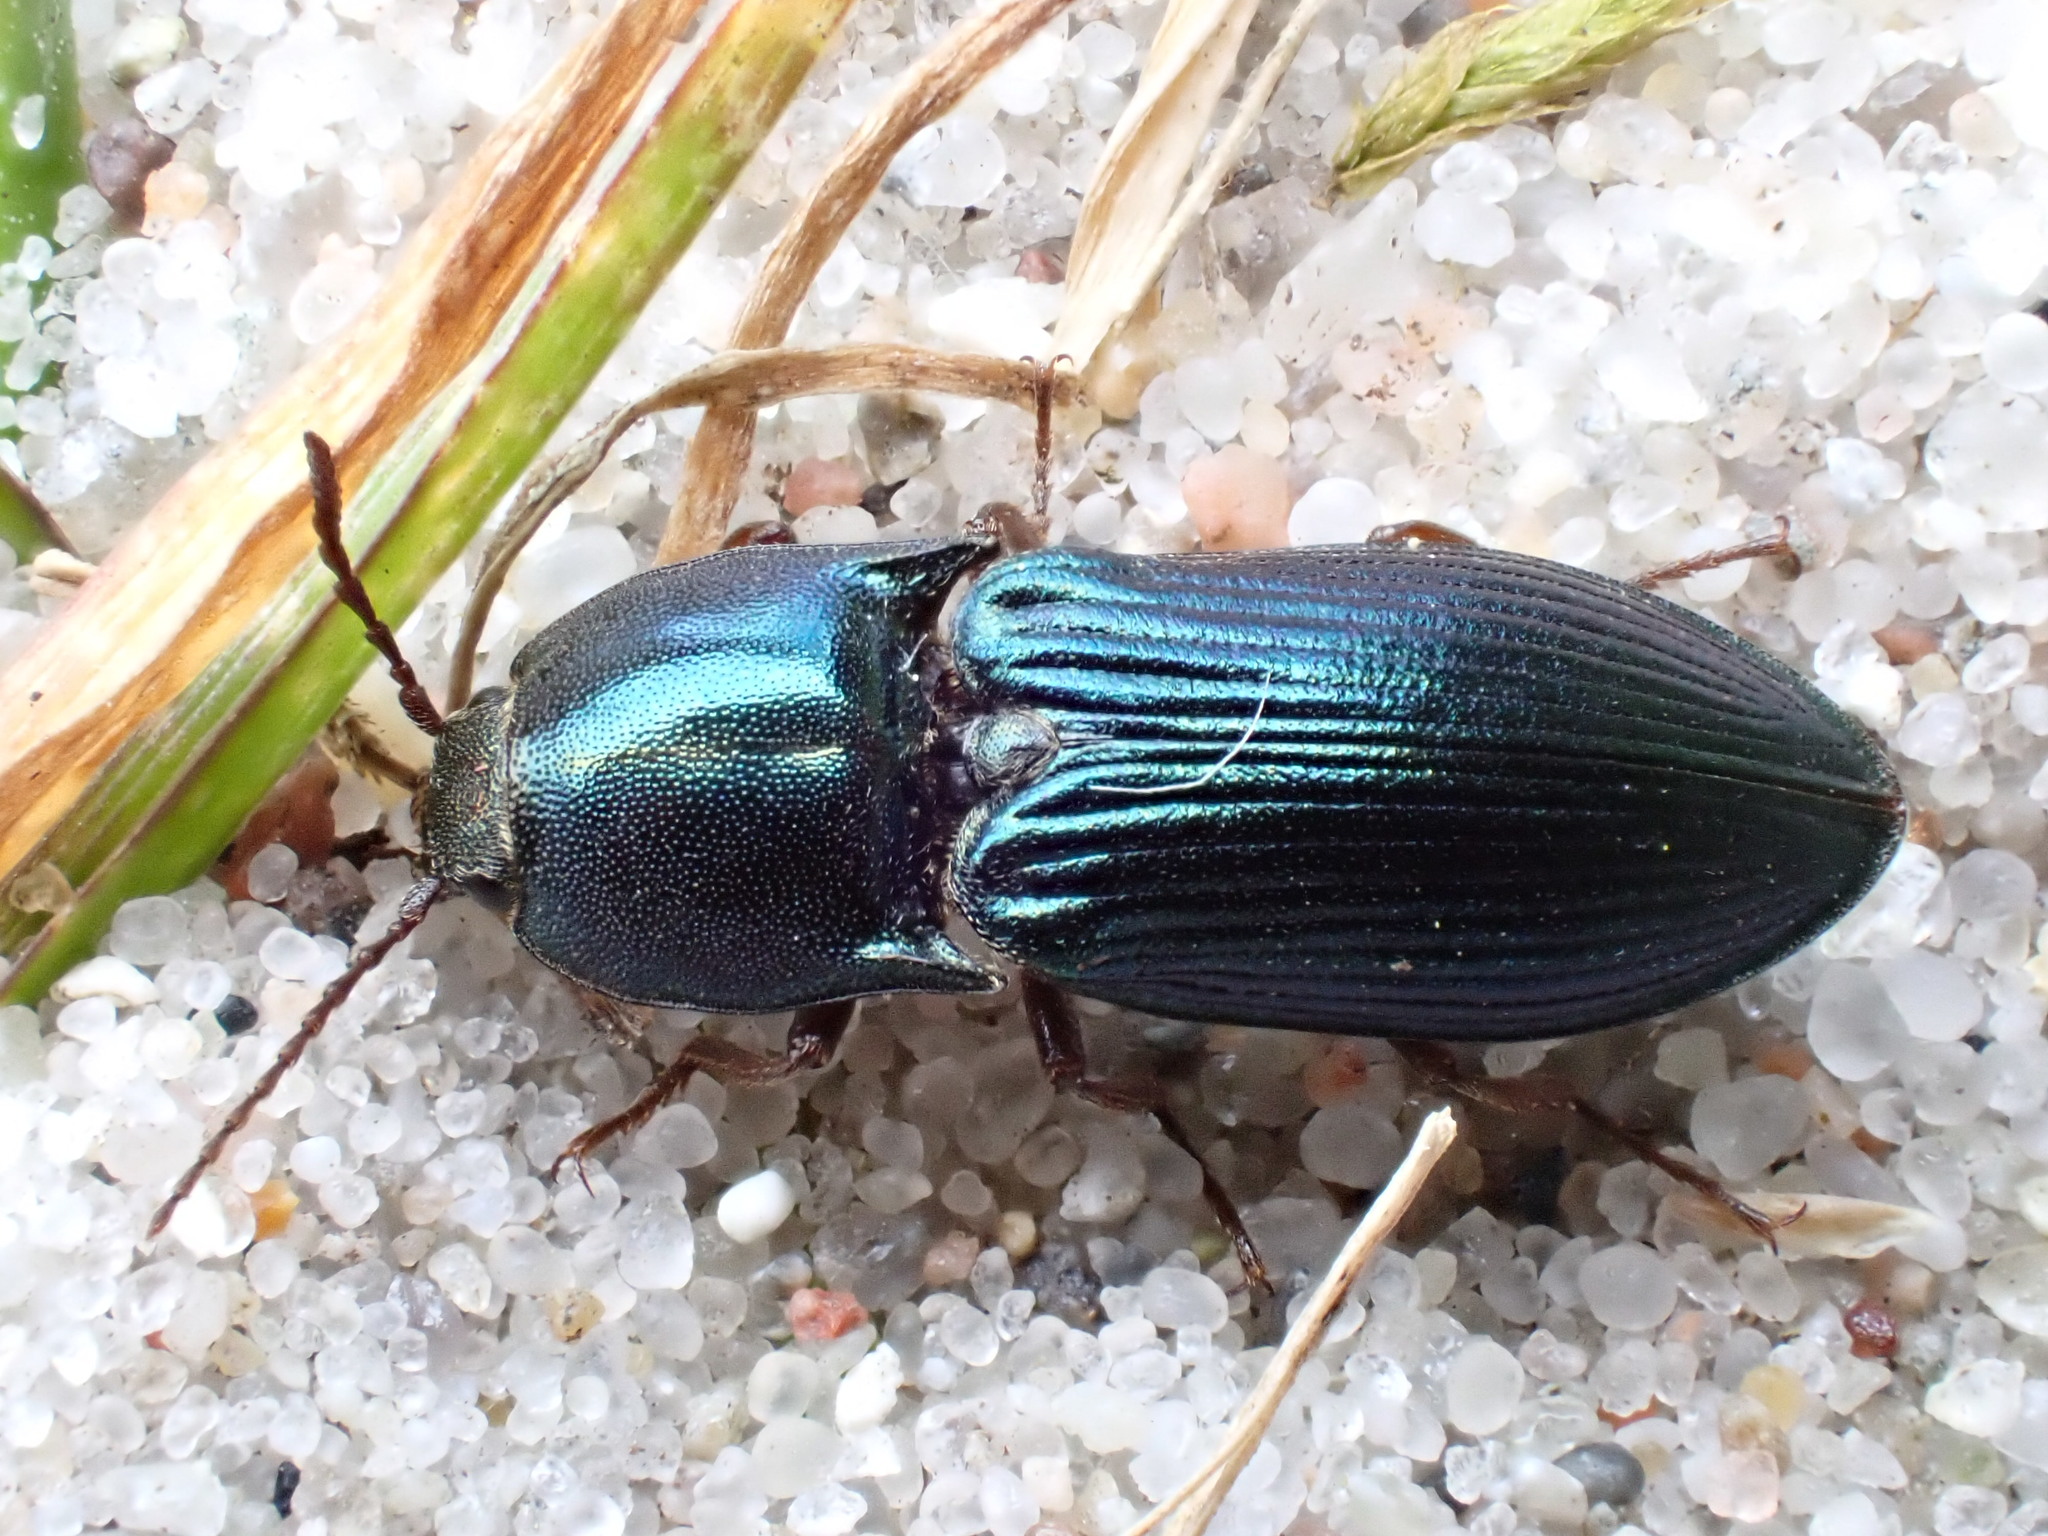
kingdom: Animalia
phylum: Arthropoda
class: Insecta
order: Coleoptera
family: Elateridae
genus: Selatosomus
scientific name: Selatosomus aeneus
